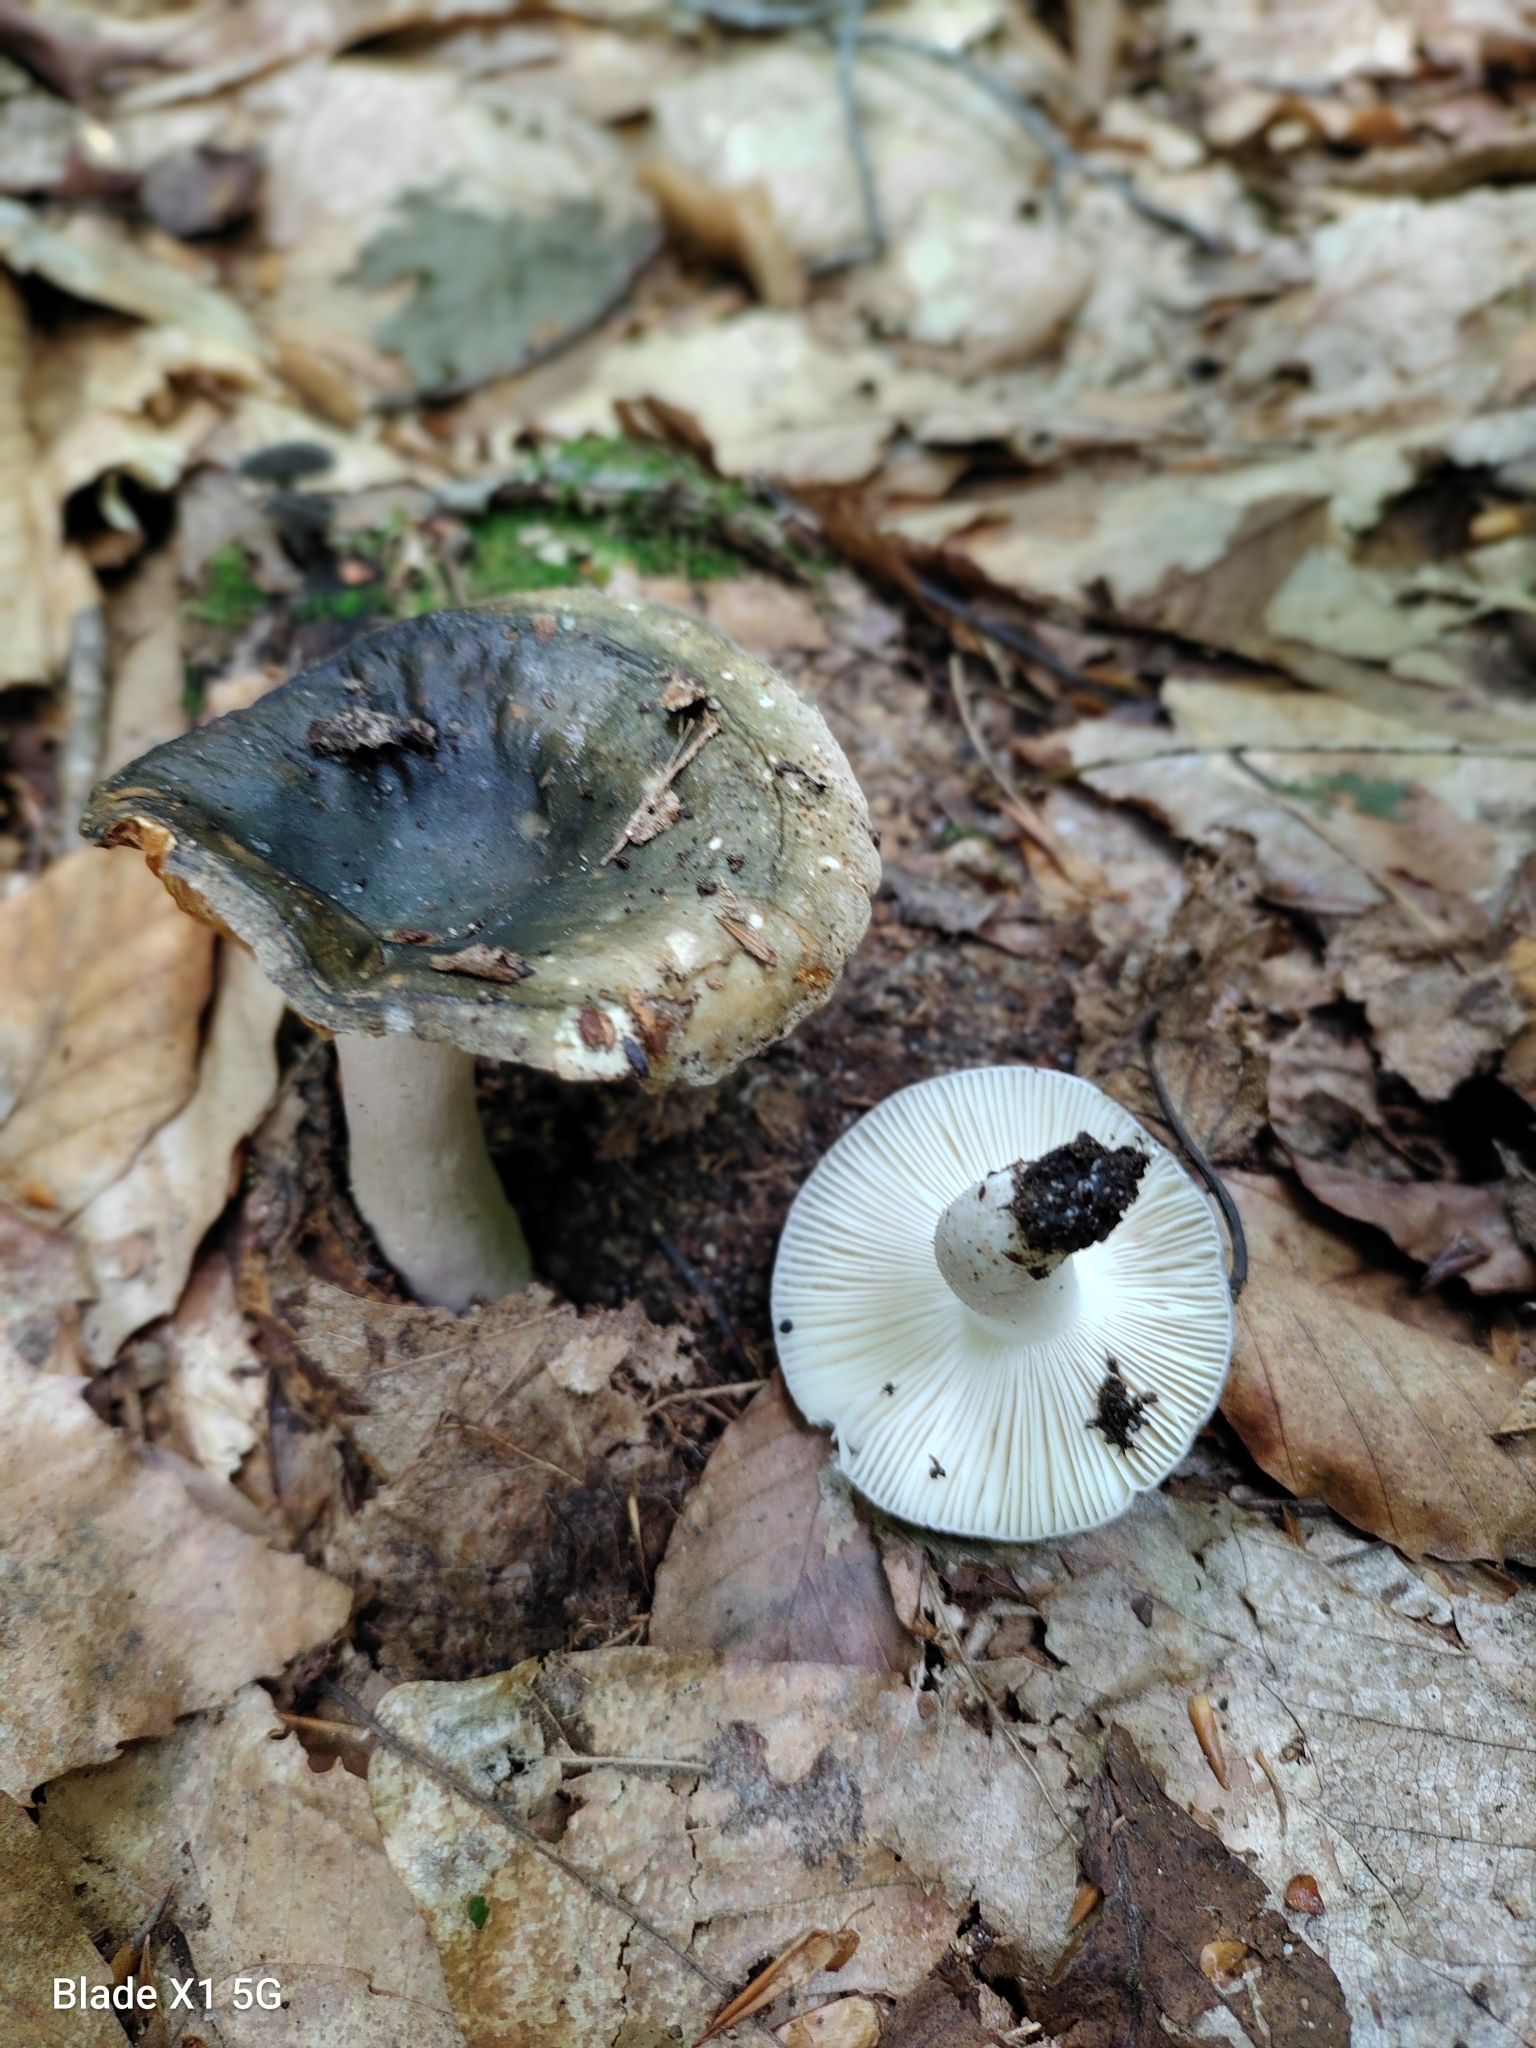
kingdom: Fungi
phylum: Basidiomycota
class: Agaricomycetes
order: Russulales
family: Russulaceae
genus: Russula
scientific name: Russula redolens
